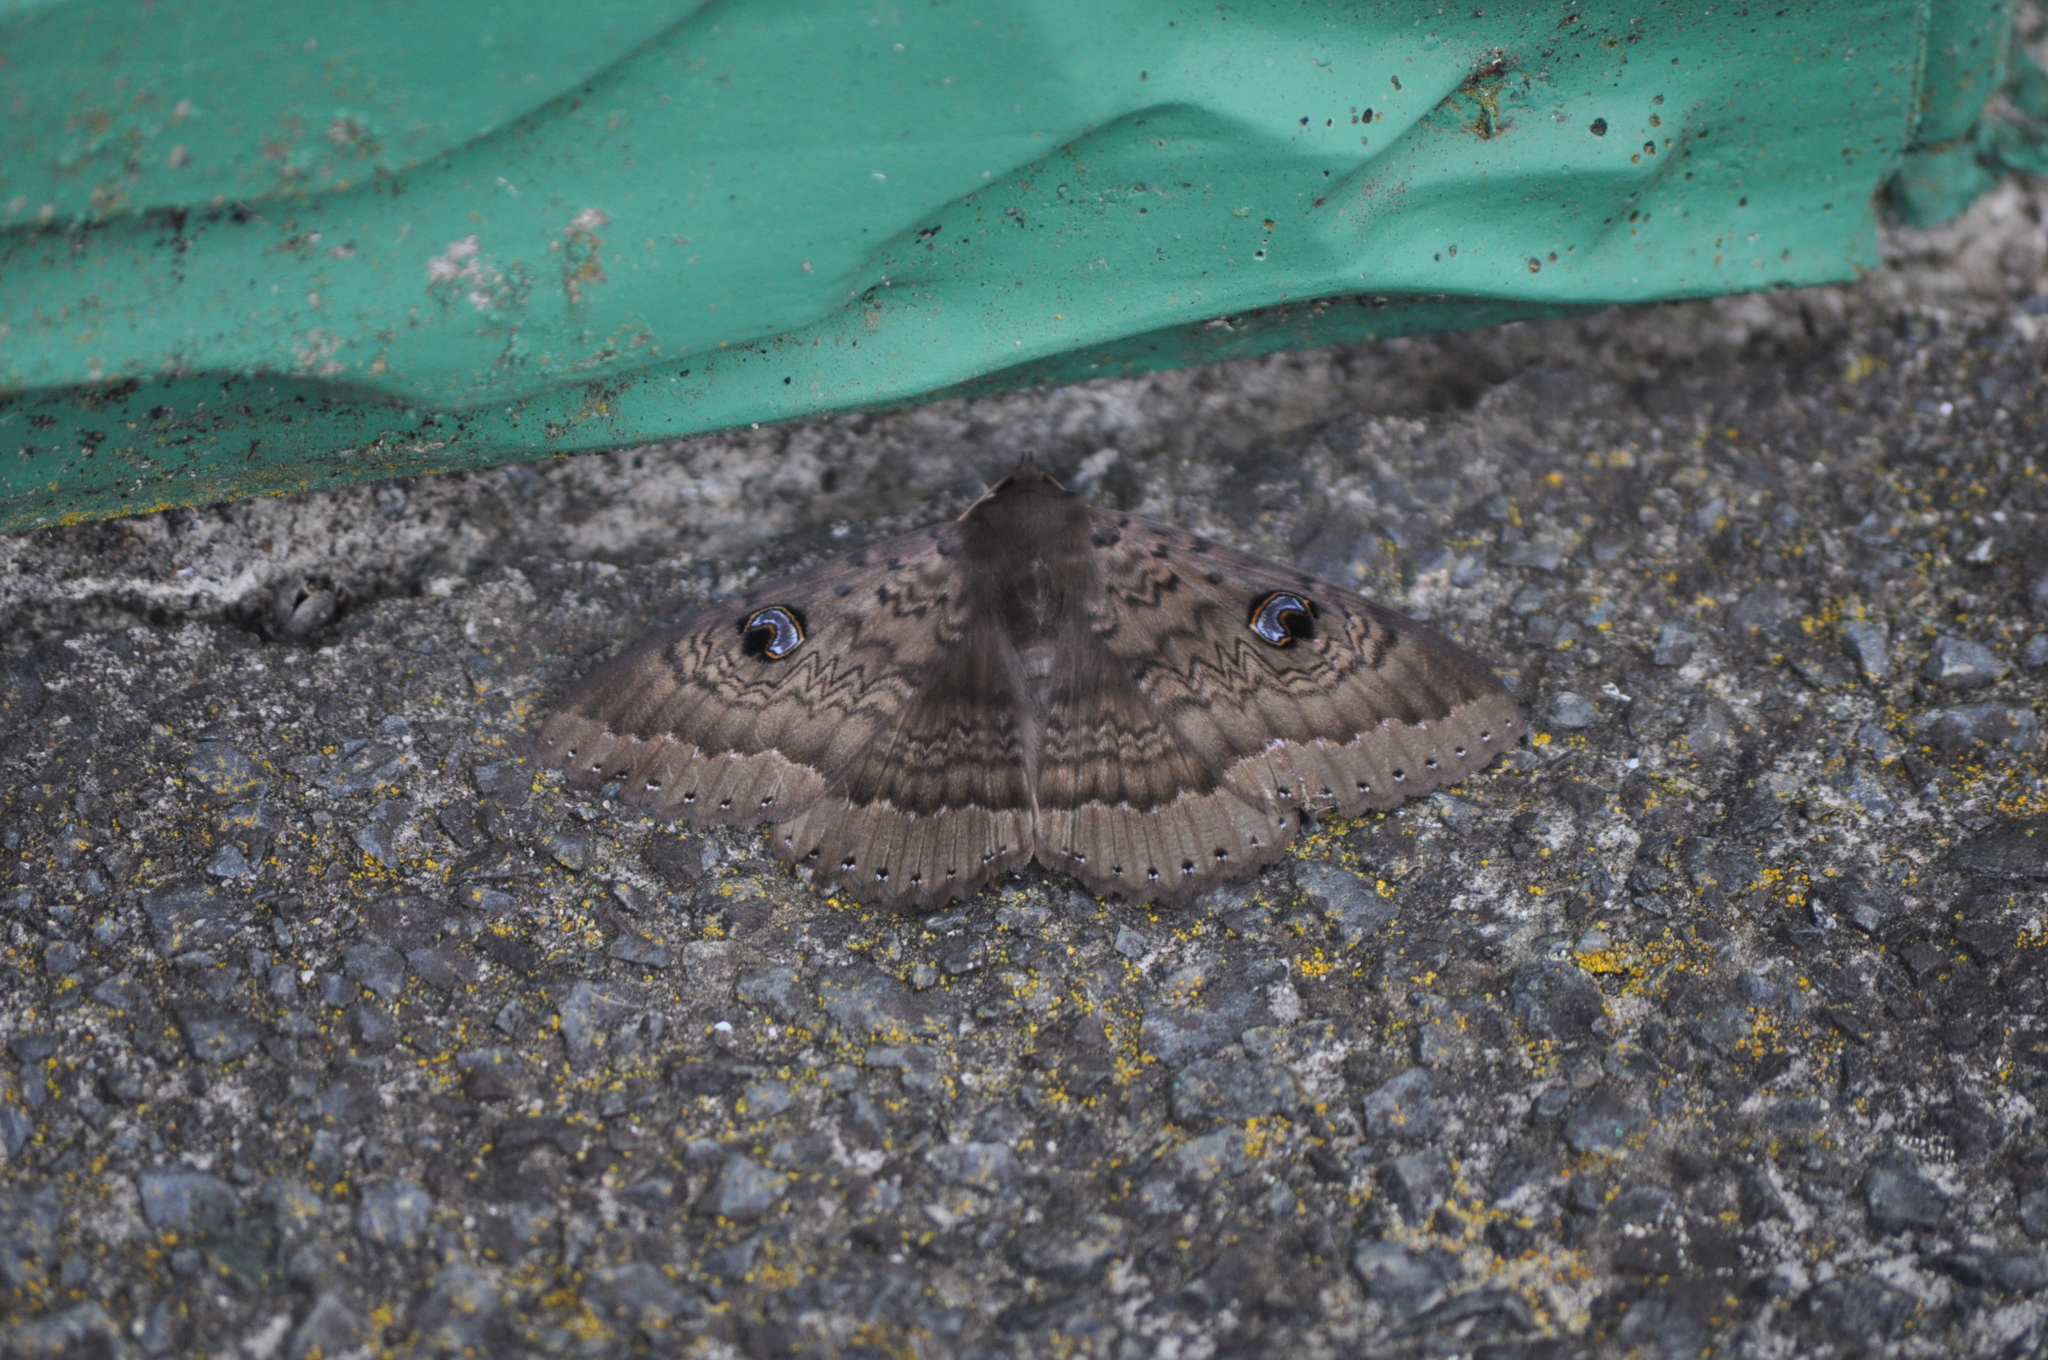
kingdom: Animalia
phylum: Arthropoda
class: Insecta
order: Lepidoptera
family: Erebidae
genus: Dasypodia
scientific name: Dasypodia cymatodes
